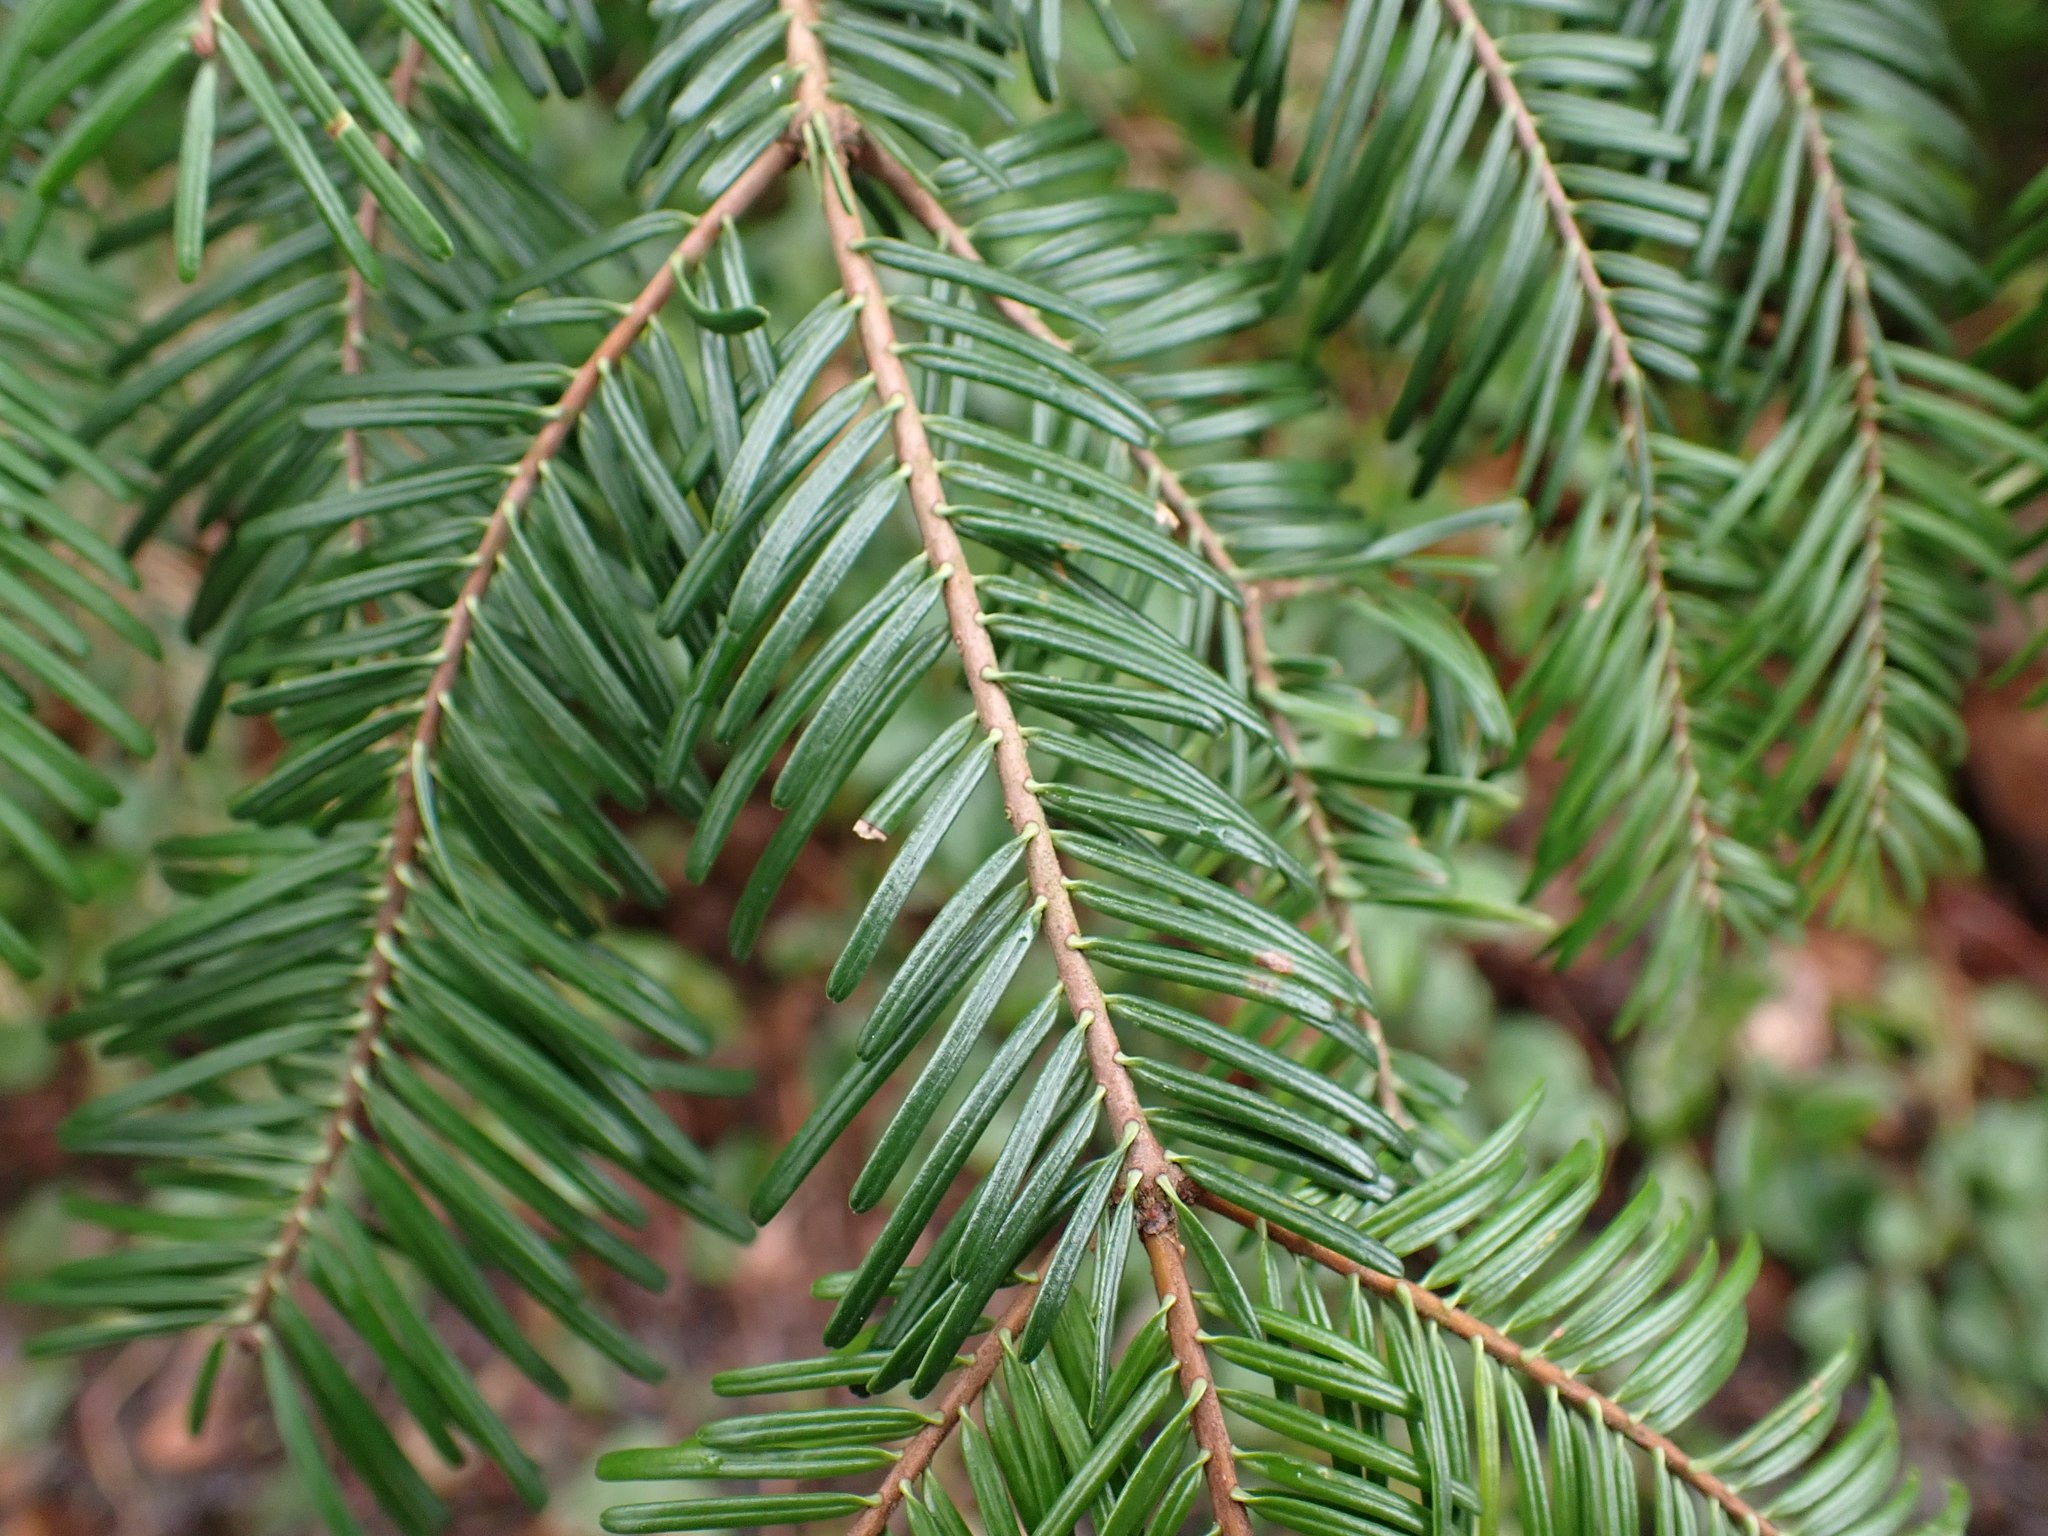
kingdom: Plantae
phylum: Tracheophyta
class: Pinopsida
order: Pinales
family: Pinaceae
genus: Abies
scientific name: Abies grandis
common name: Giant fir
